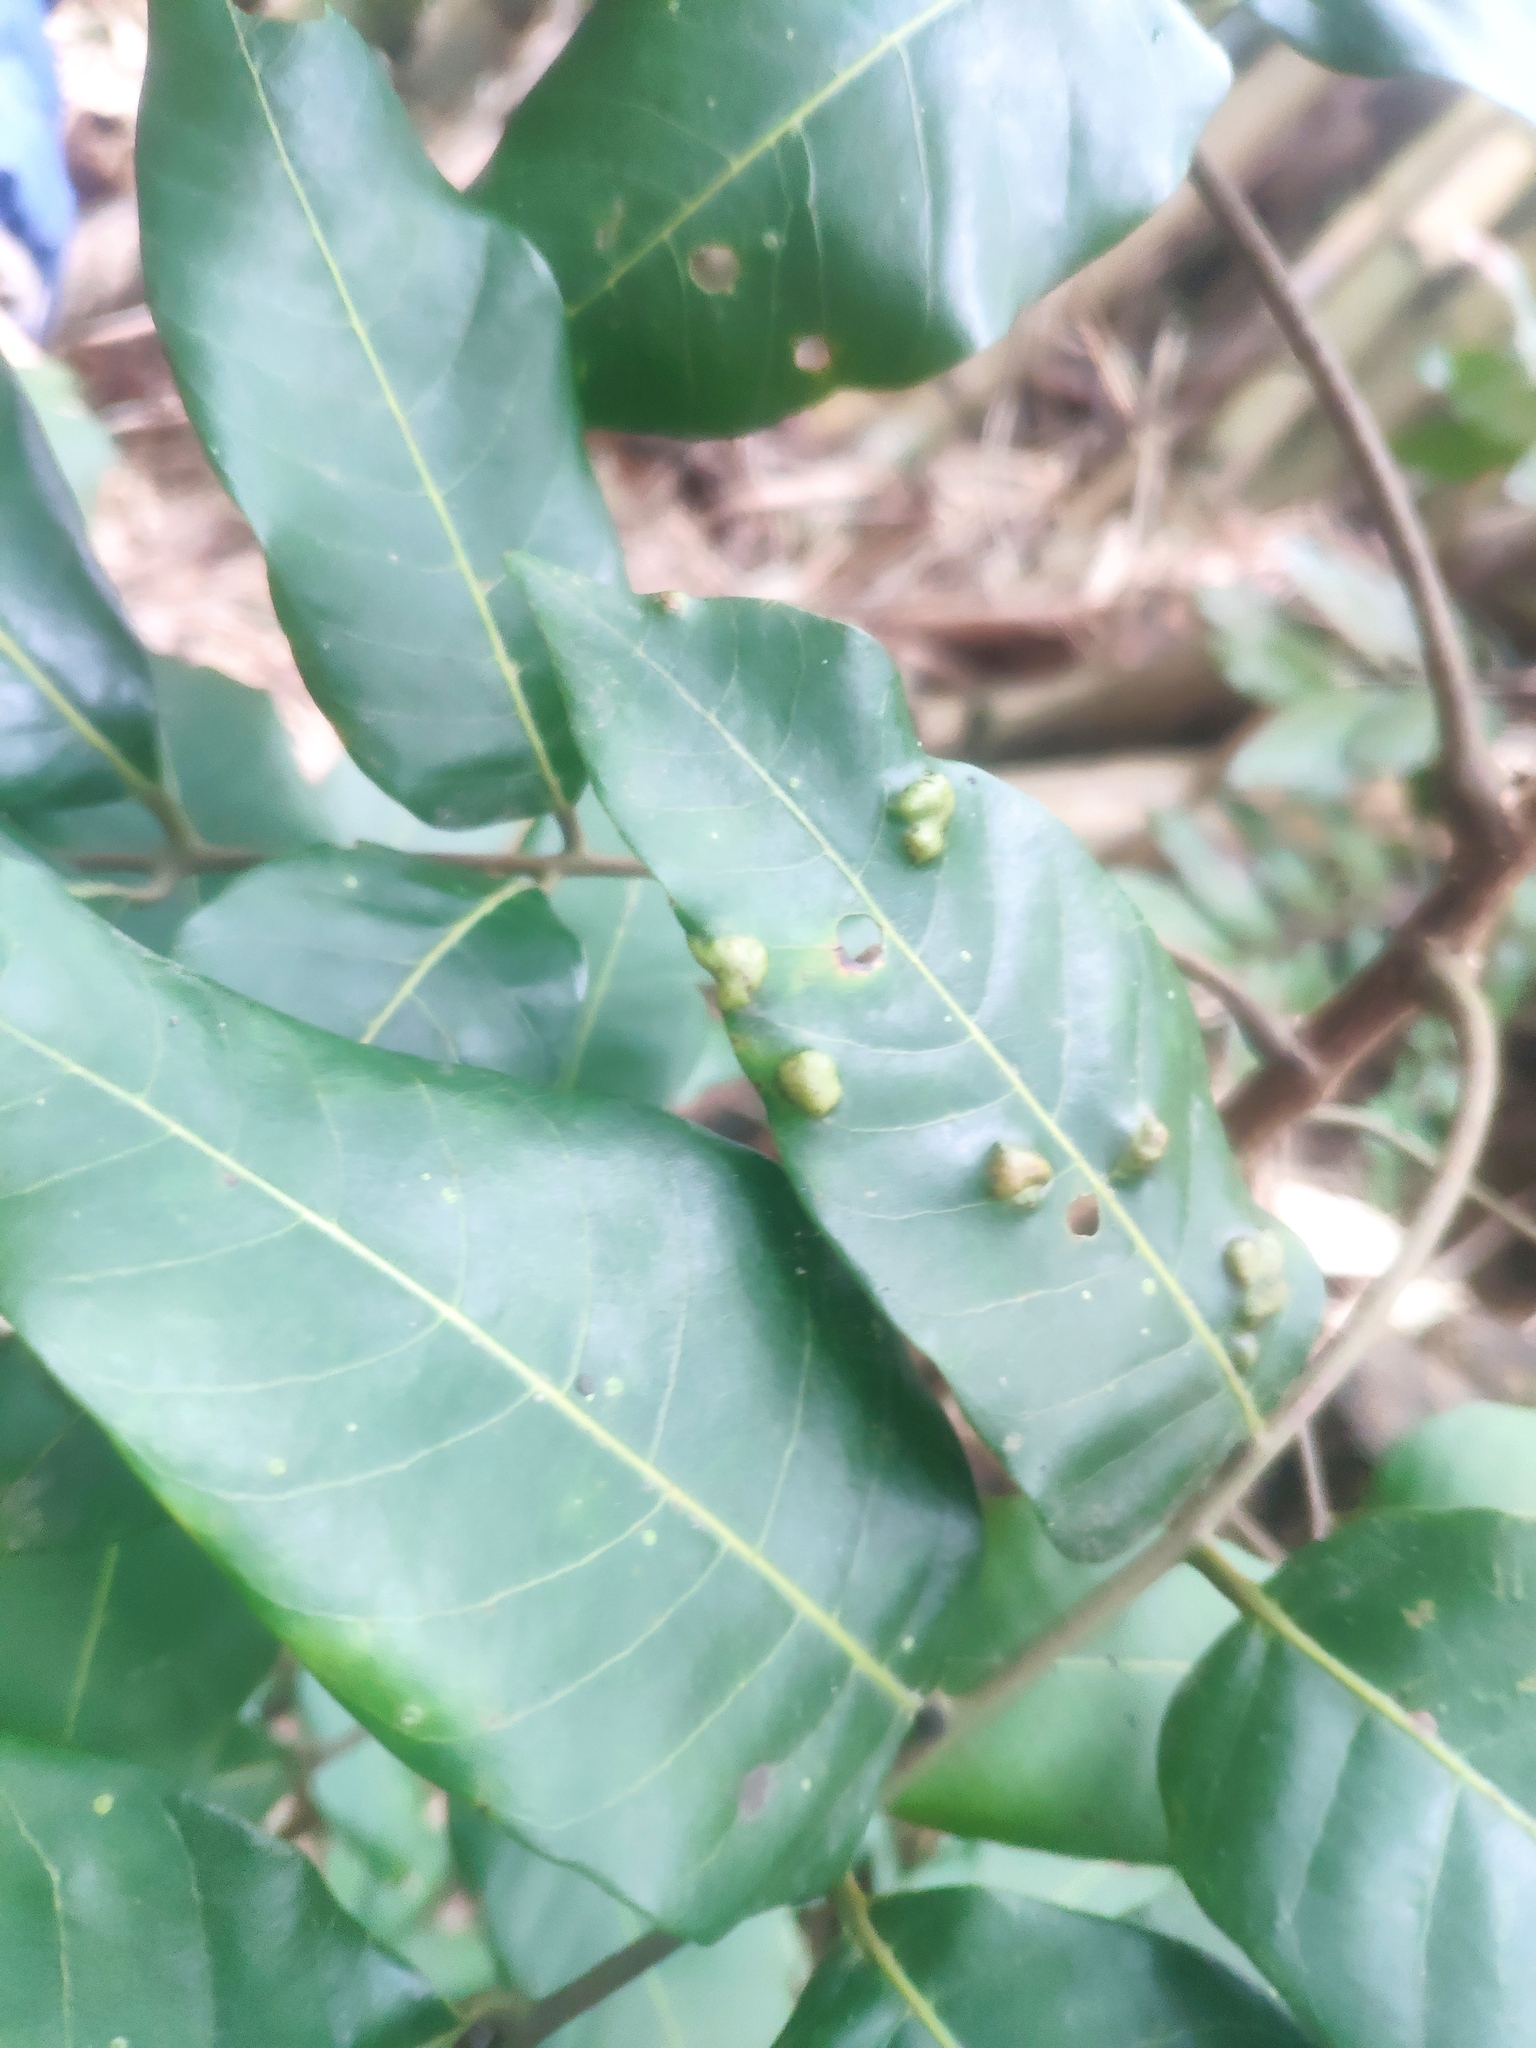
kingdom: Plantae
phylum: Tracheophyta
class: Magnoliopsida
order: Sapindales
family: Sapindaceae
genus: Dimocarpus
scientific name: Dimocarpus longan
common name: Longan
